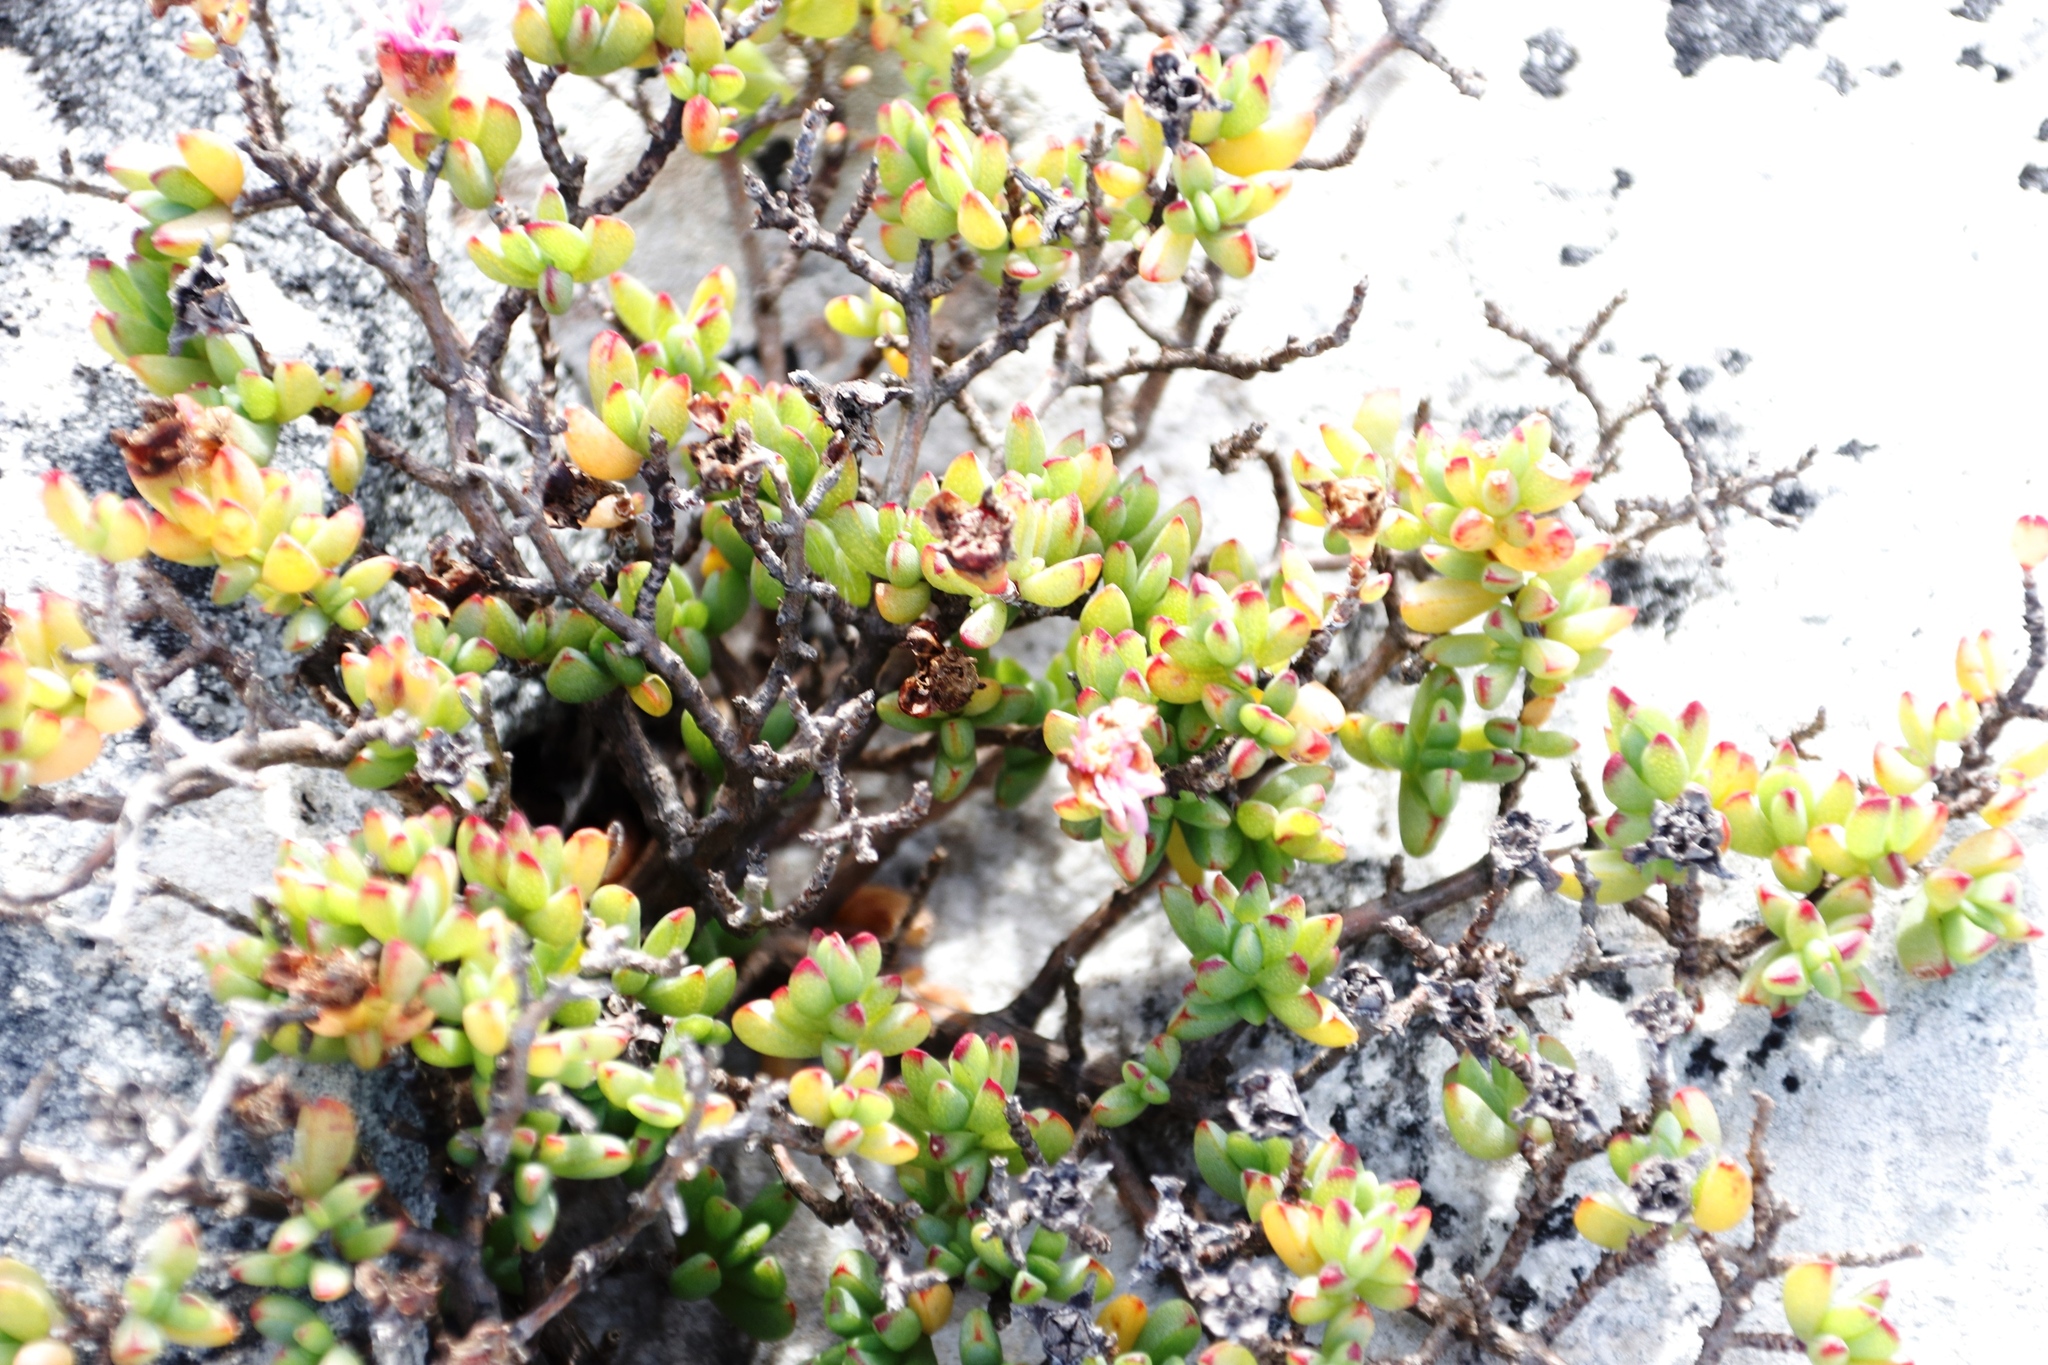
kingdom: Plantae
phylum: Tracheophyta
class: Magnoliopsida
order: Caryophyllales
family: Aizoaceae
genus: Oscularia
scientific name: Oscularia falciformis
